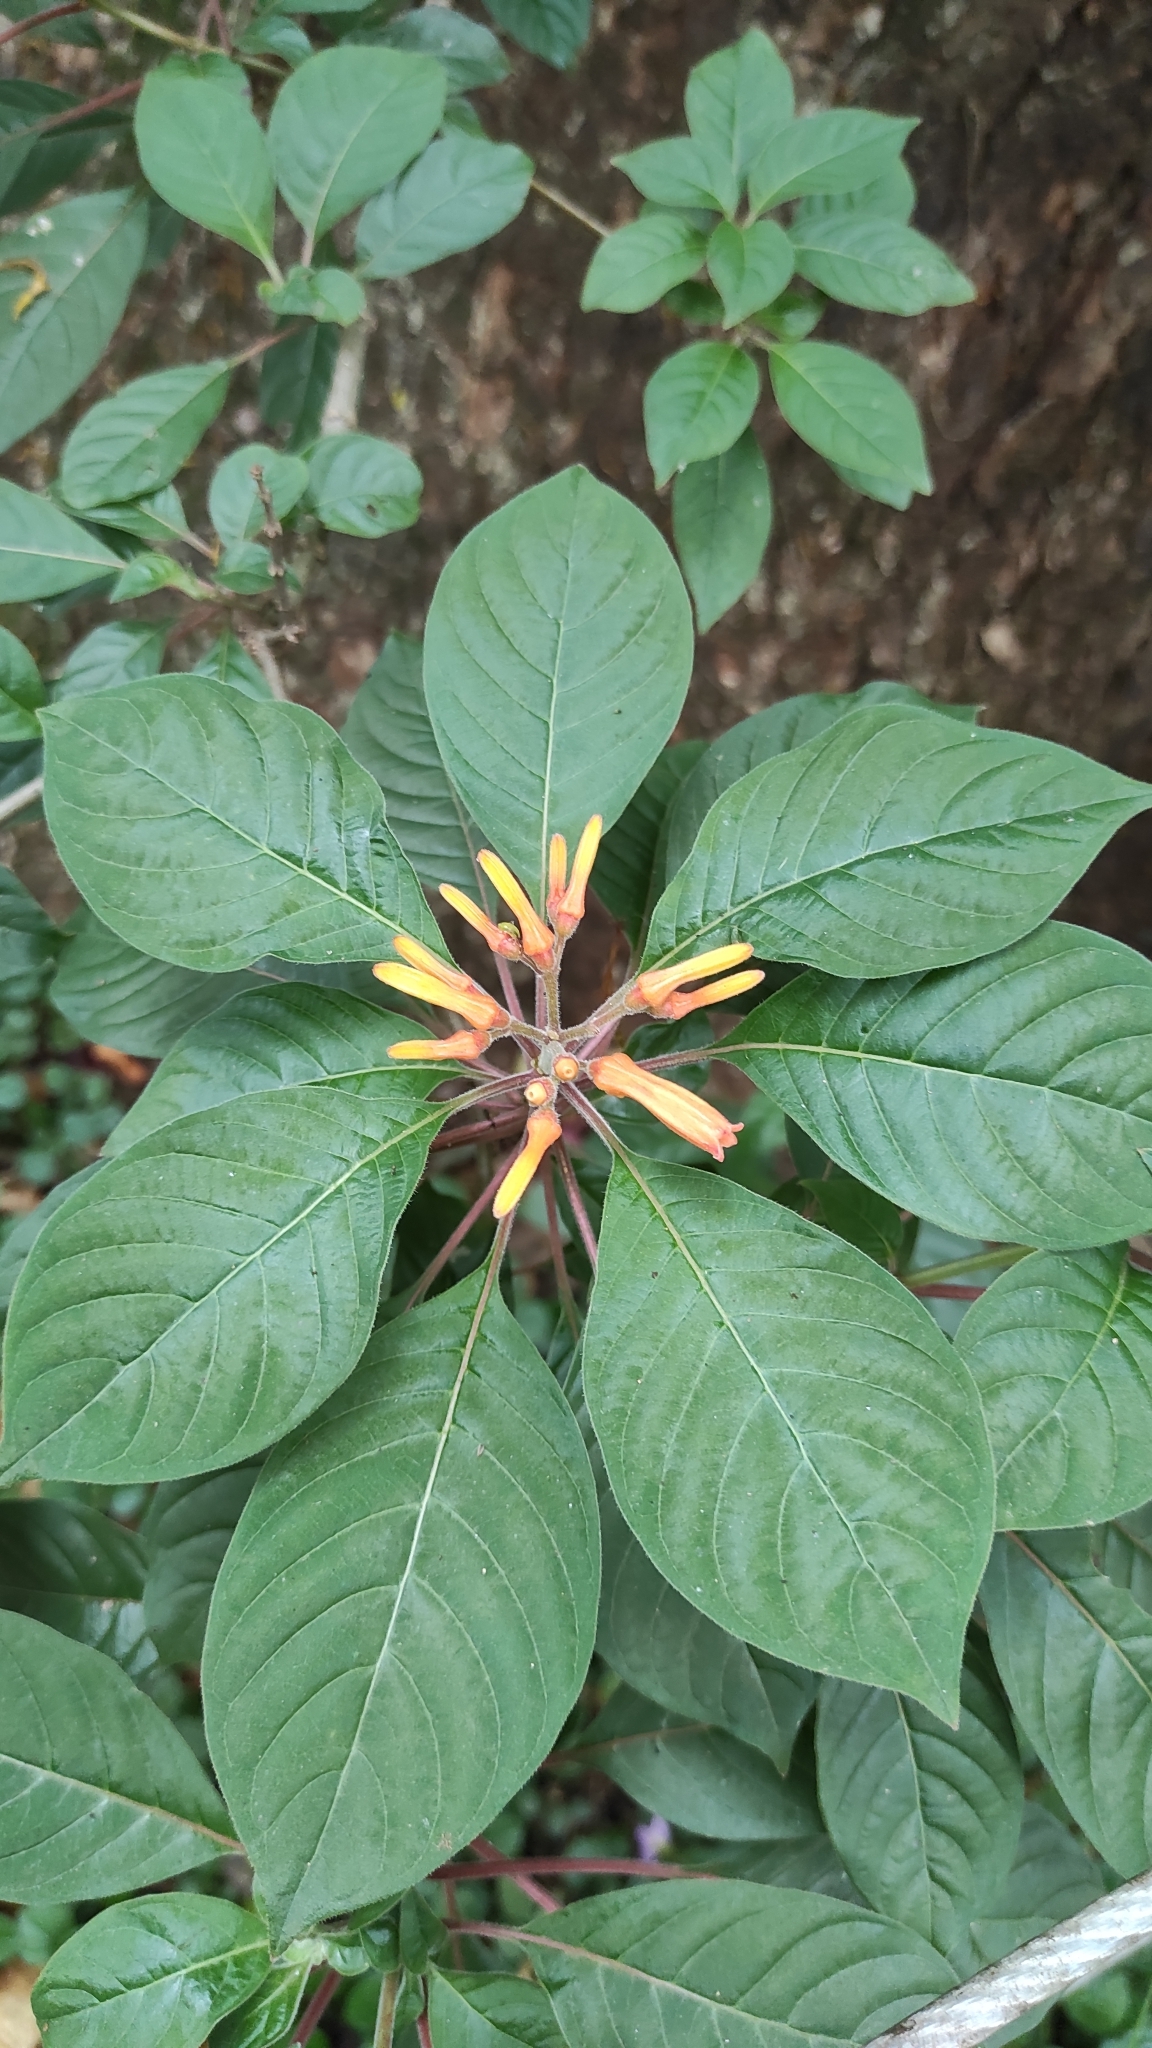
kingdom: Plantae
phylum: Tracheophyta
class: Magnoliopsida
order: Gentianales
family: Rubiaceae
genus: Hamelia
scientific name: Hamelia patens
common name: Redhead
